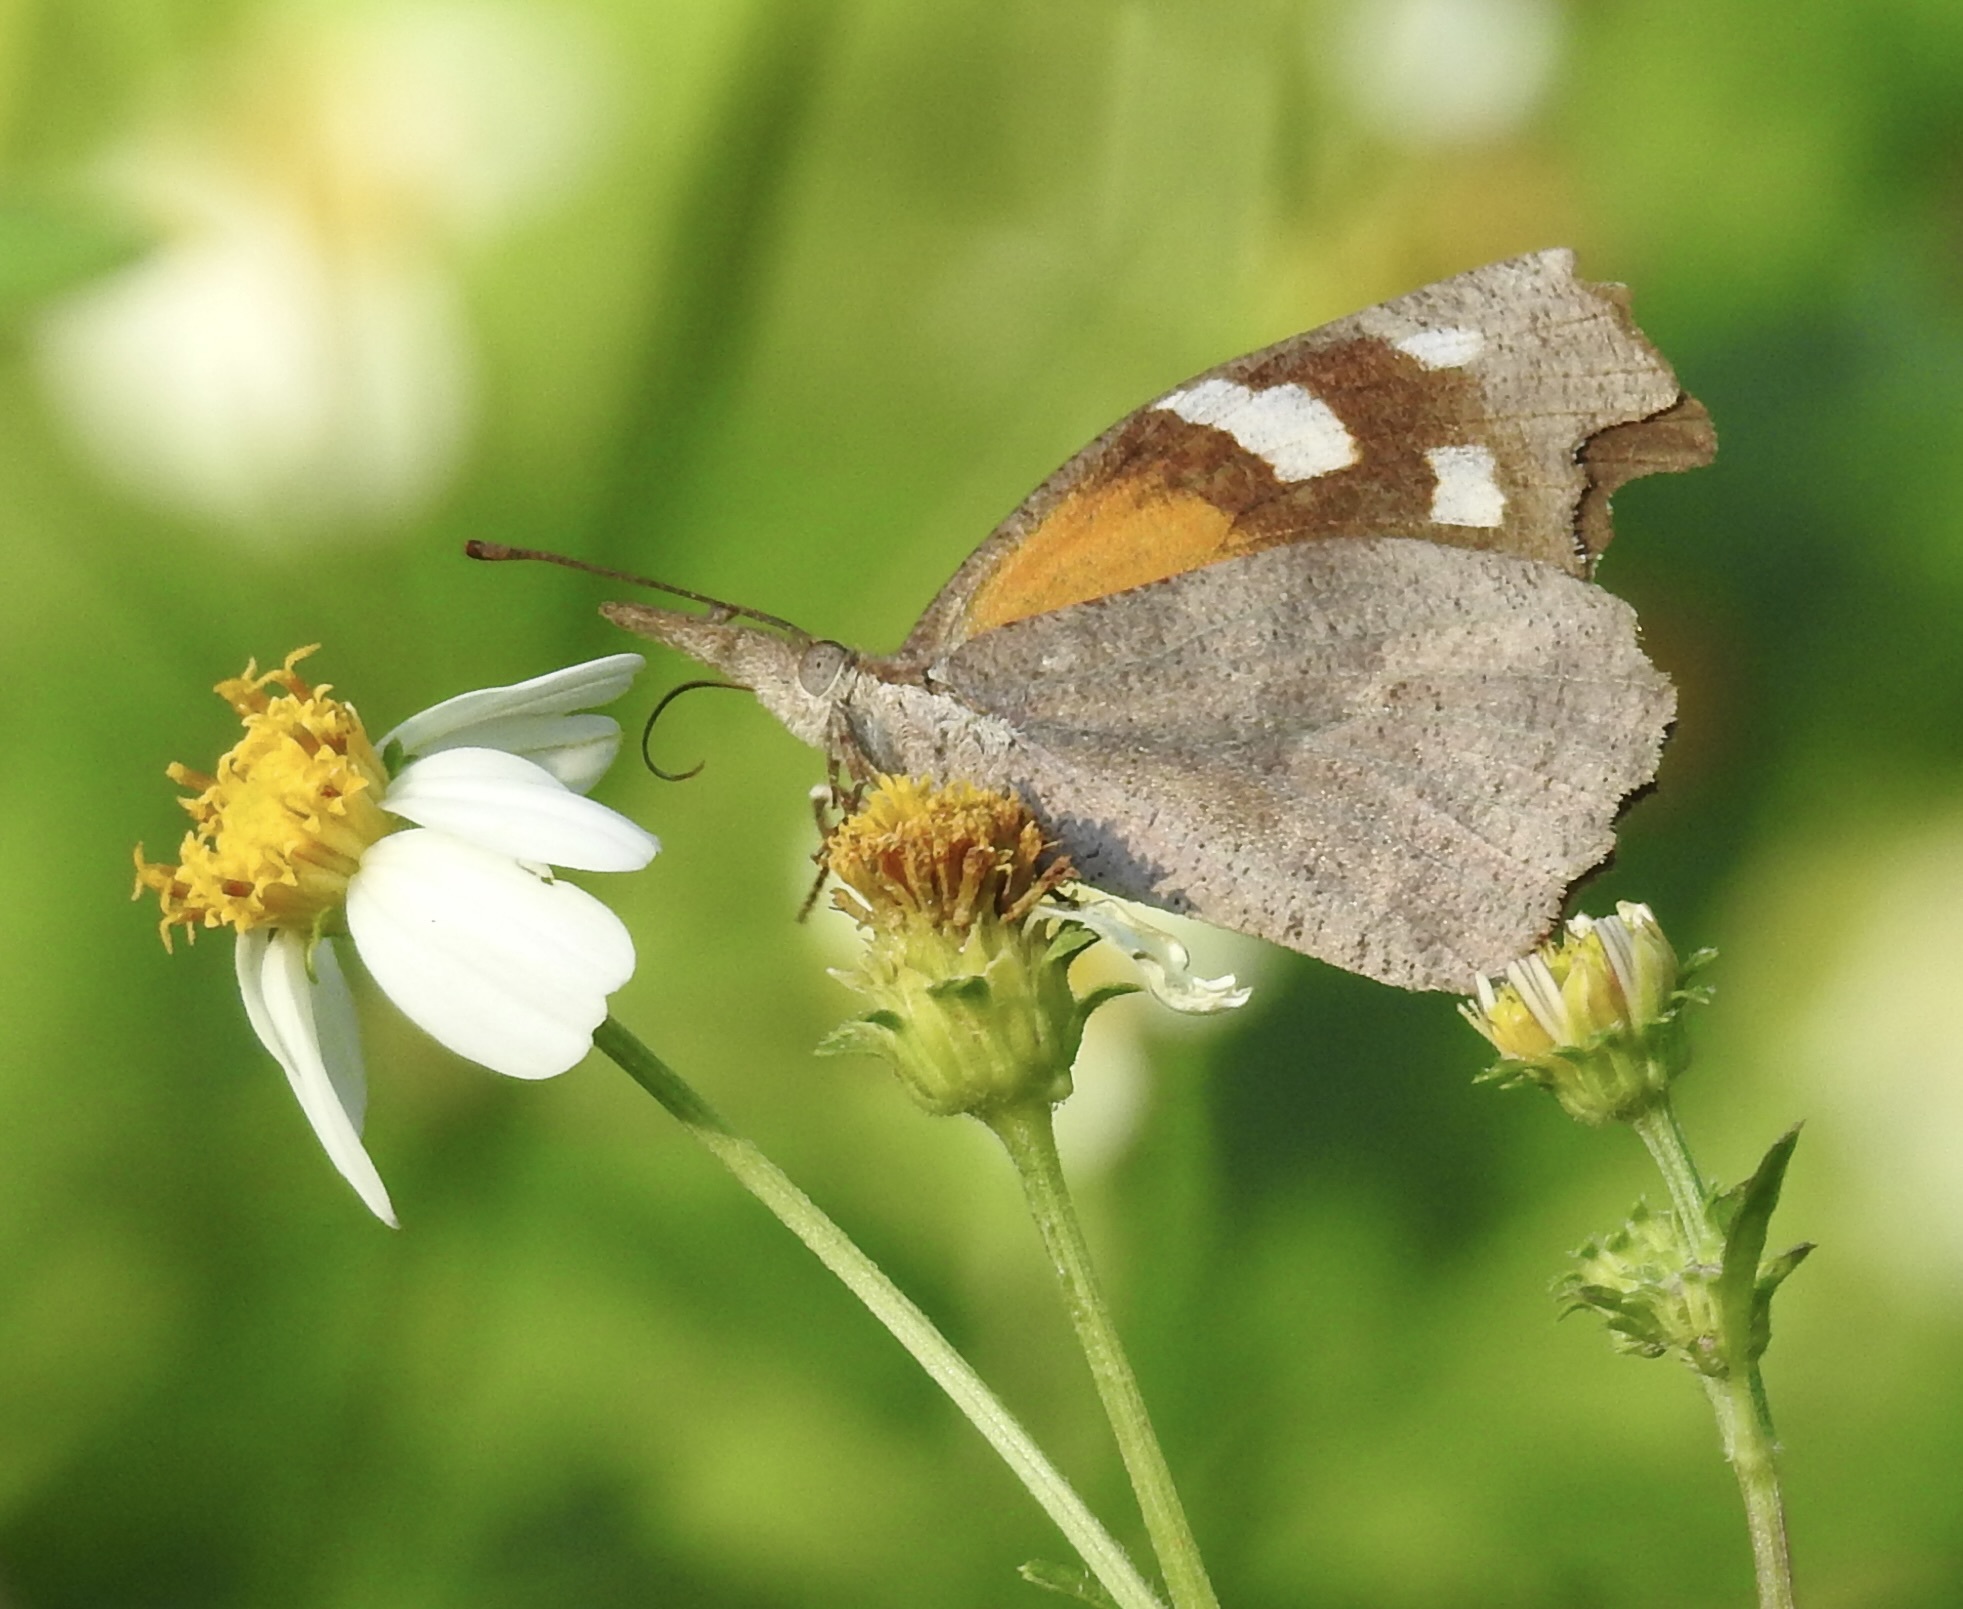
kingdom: Animalia
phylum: Arthropoda
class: Insecta
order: Lepidoptera
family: Nymphalidae
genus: Libytheana
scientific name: Libytheana carinenta
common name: American snout
